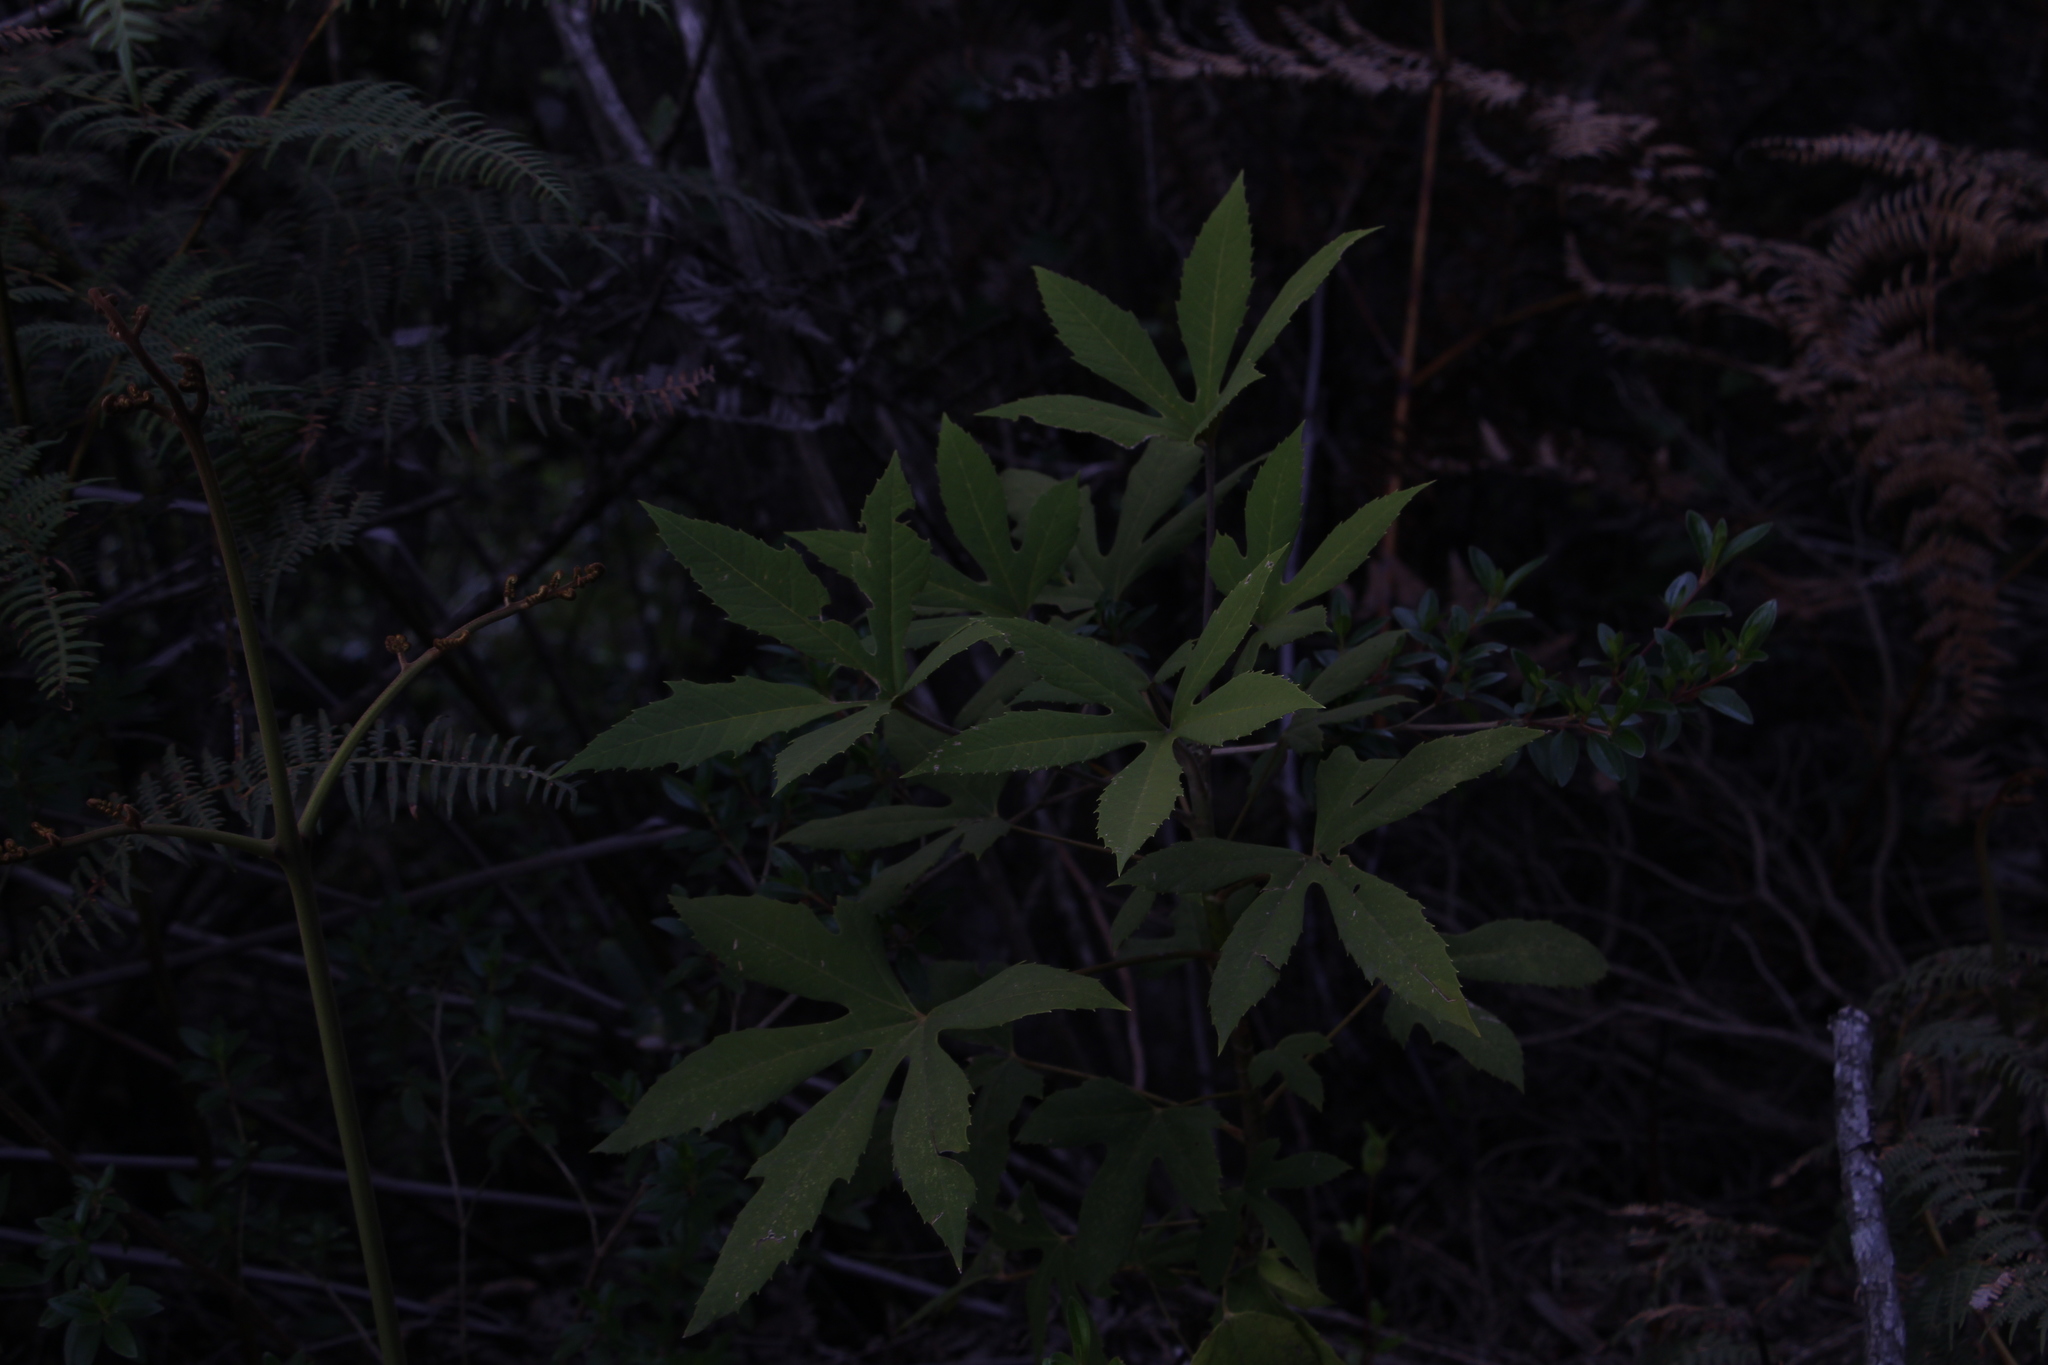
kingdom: Plantae
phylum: Tracheophyta
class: Magnoliopsida
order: Apiales
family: Araliaceae
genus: Oreopanax
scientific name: Oreopanax incisus
